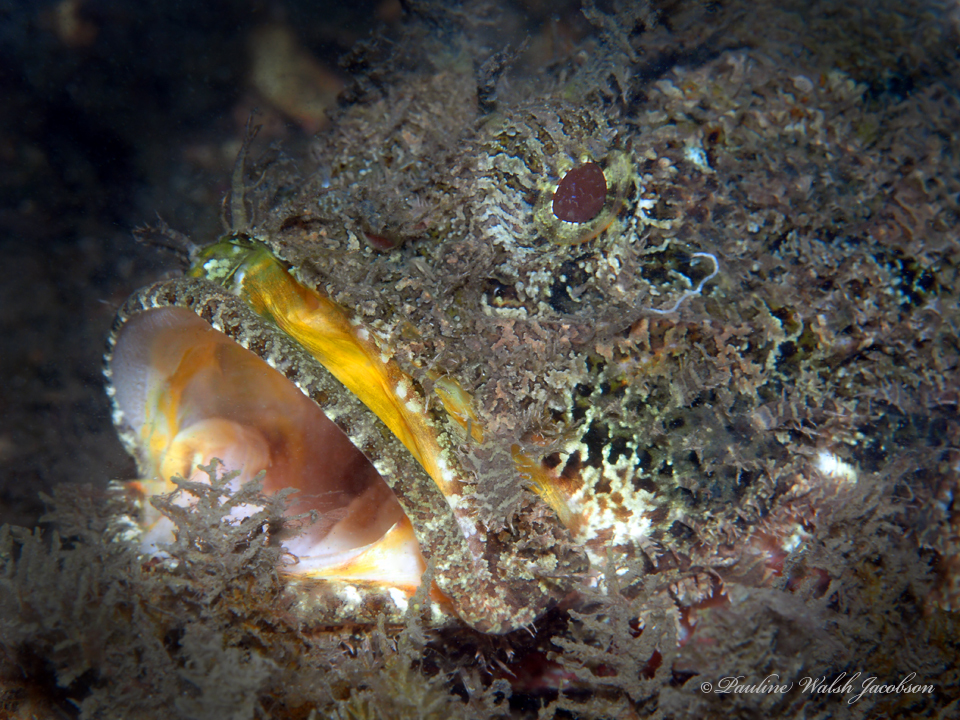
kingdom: Animalia
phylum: Chordata
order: Scorpaeniformes
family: Scorpaenidae
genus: Scorpaena
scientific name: Scorpaena plumieri
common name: Spotted scorpionfish
